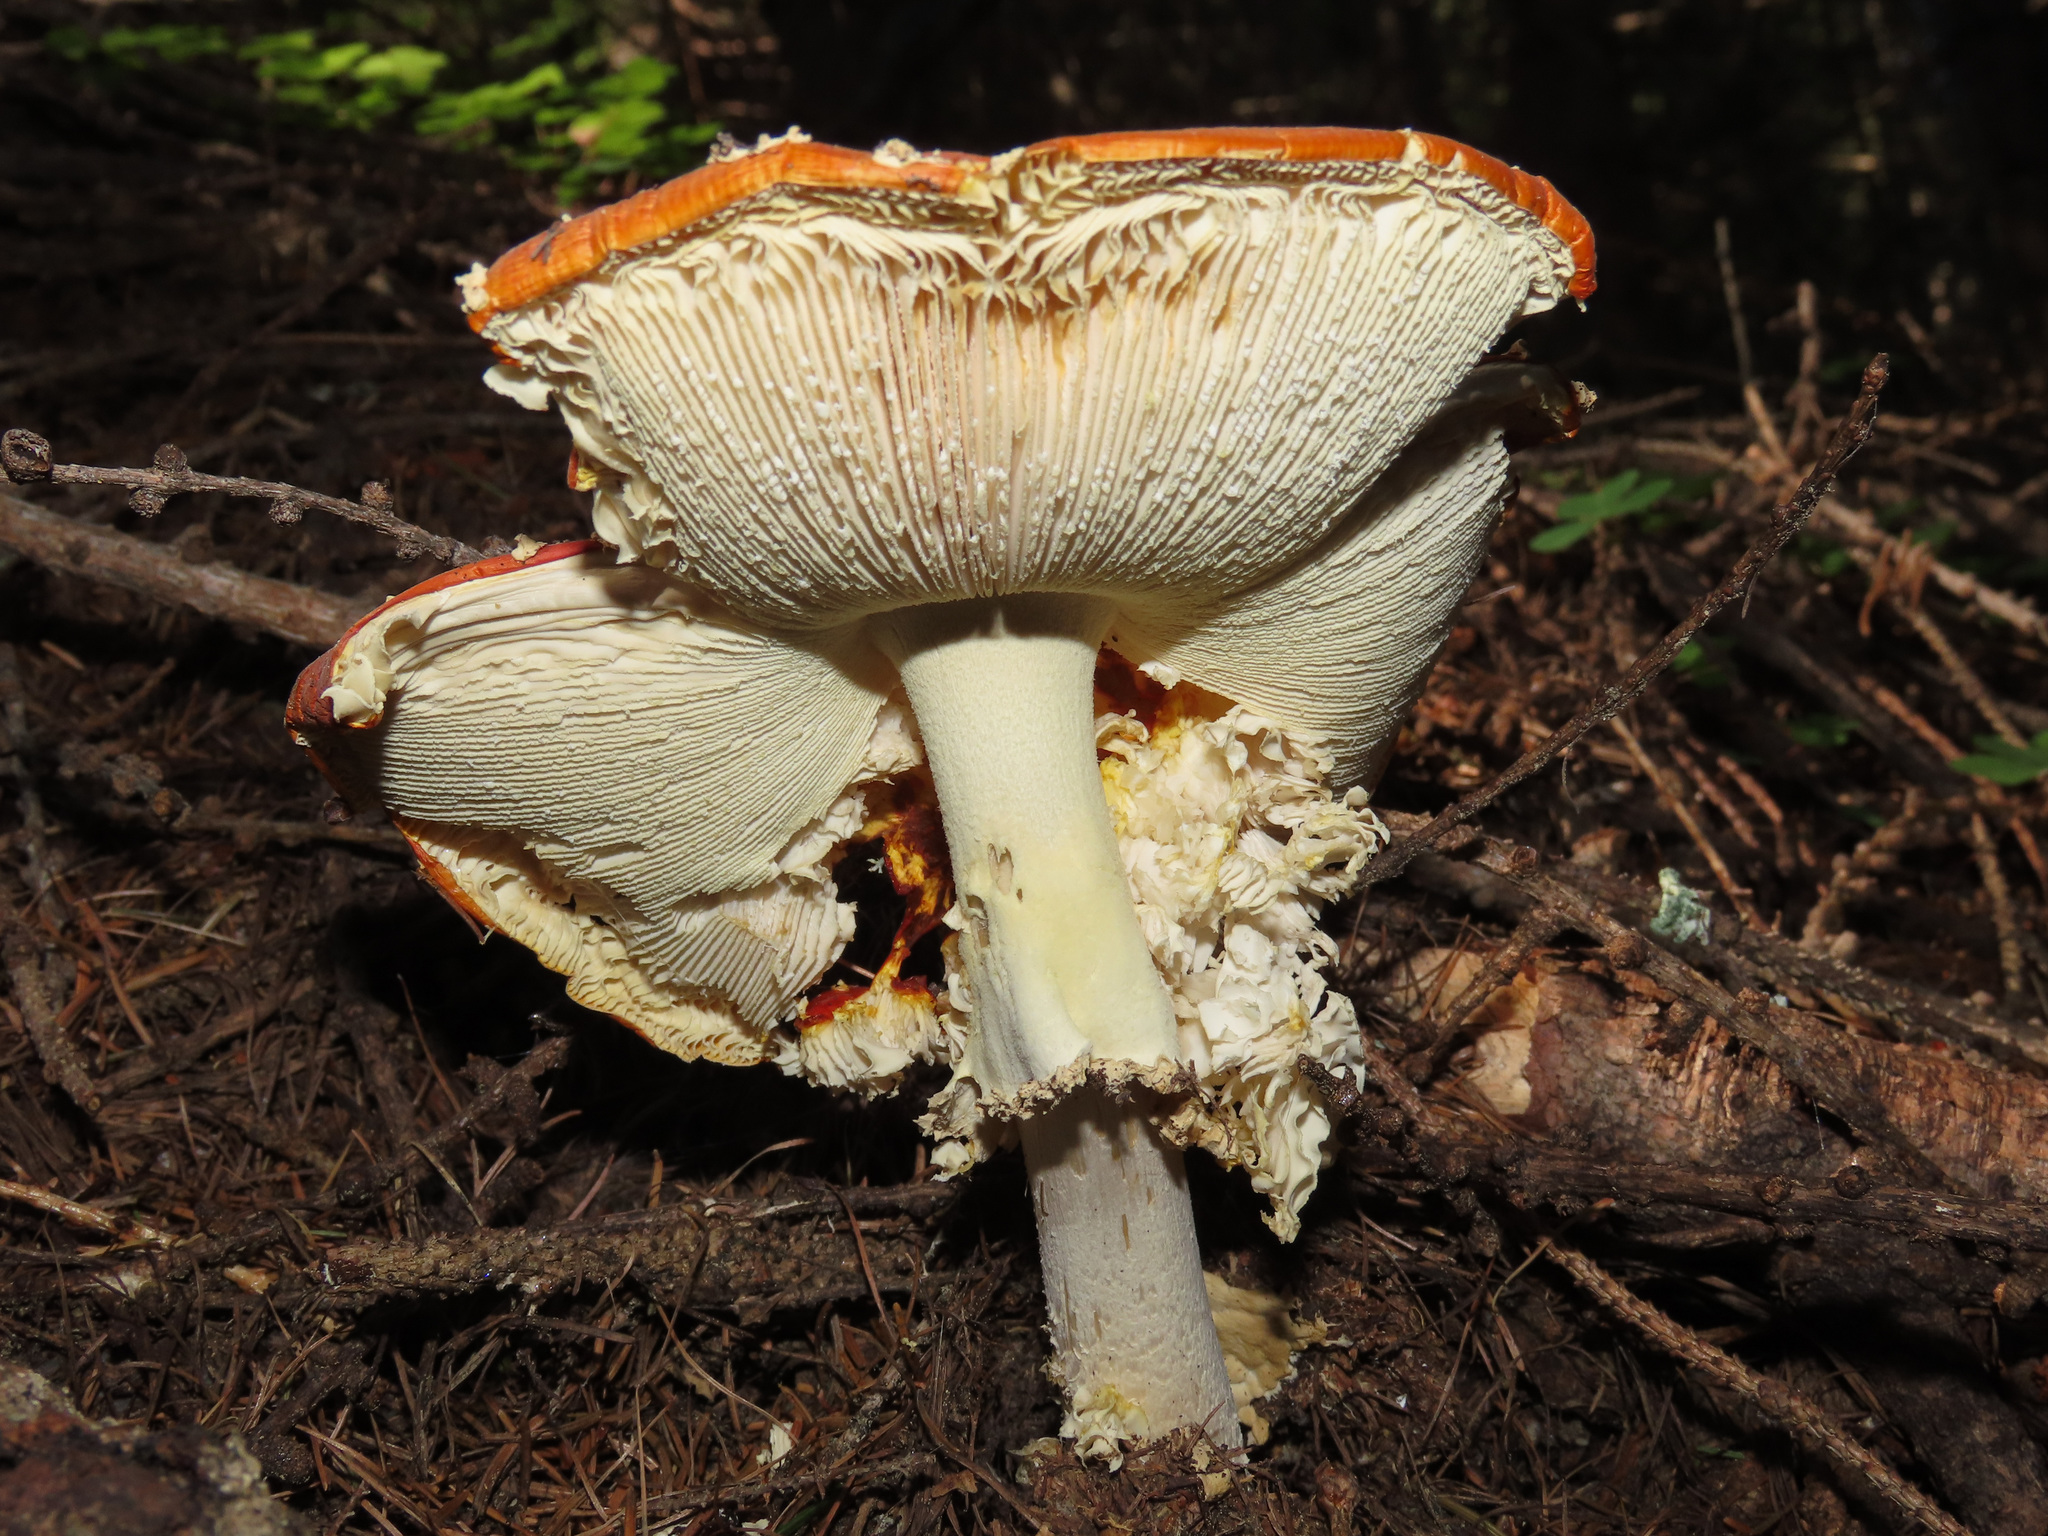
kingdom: Fungi
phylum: Basidiomycota
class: Agaricomycetes
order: Agaricales
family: Amanitaceae
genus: Amanita
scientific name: Amanita muscaria
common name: Fly agaric
